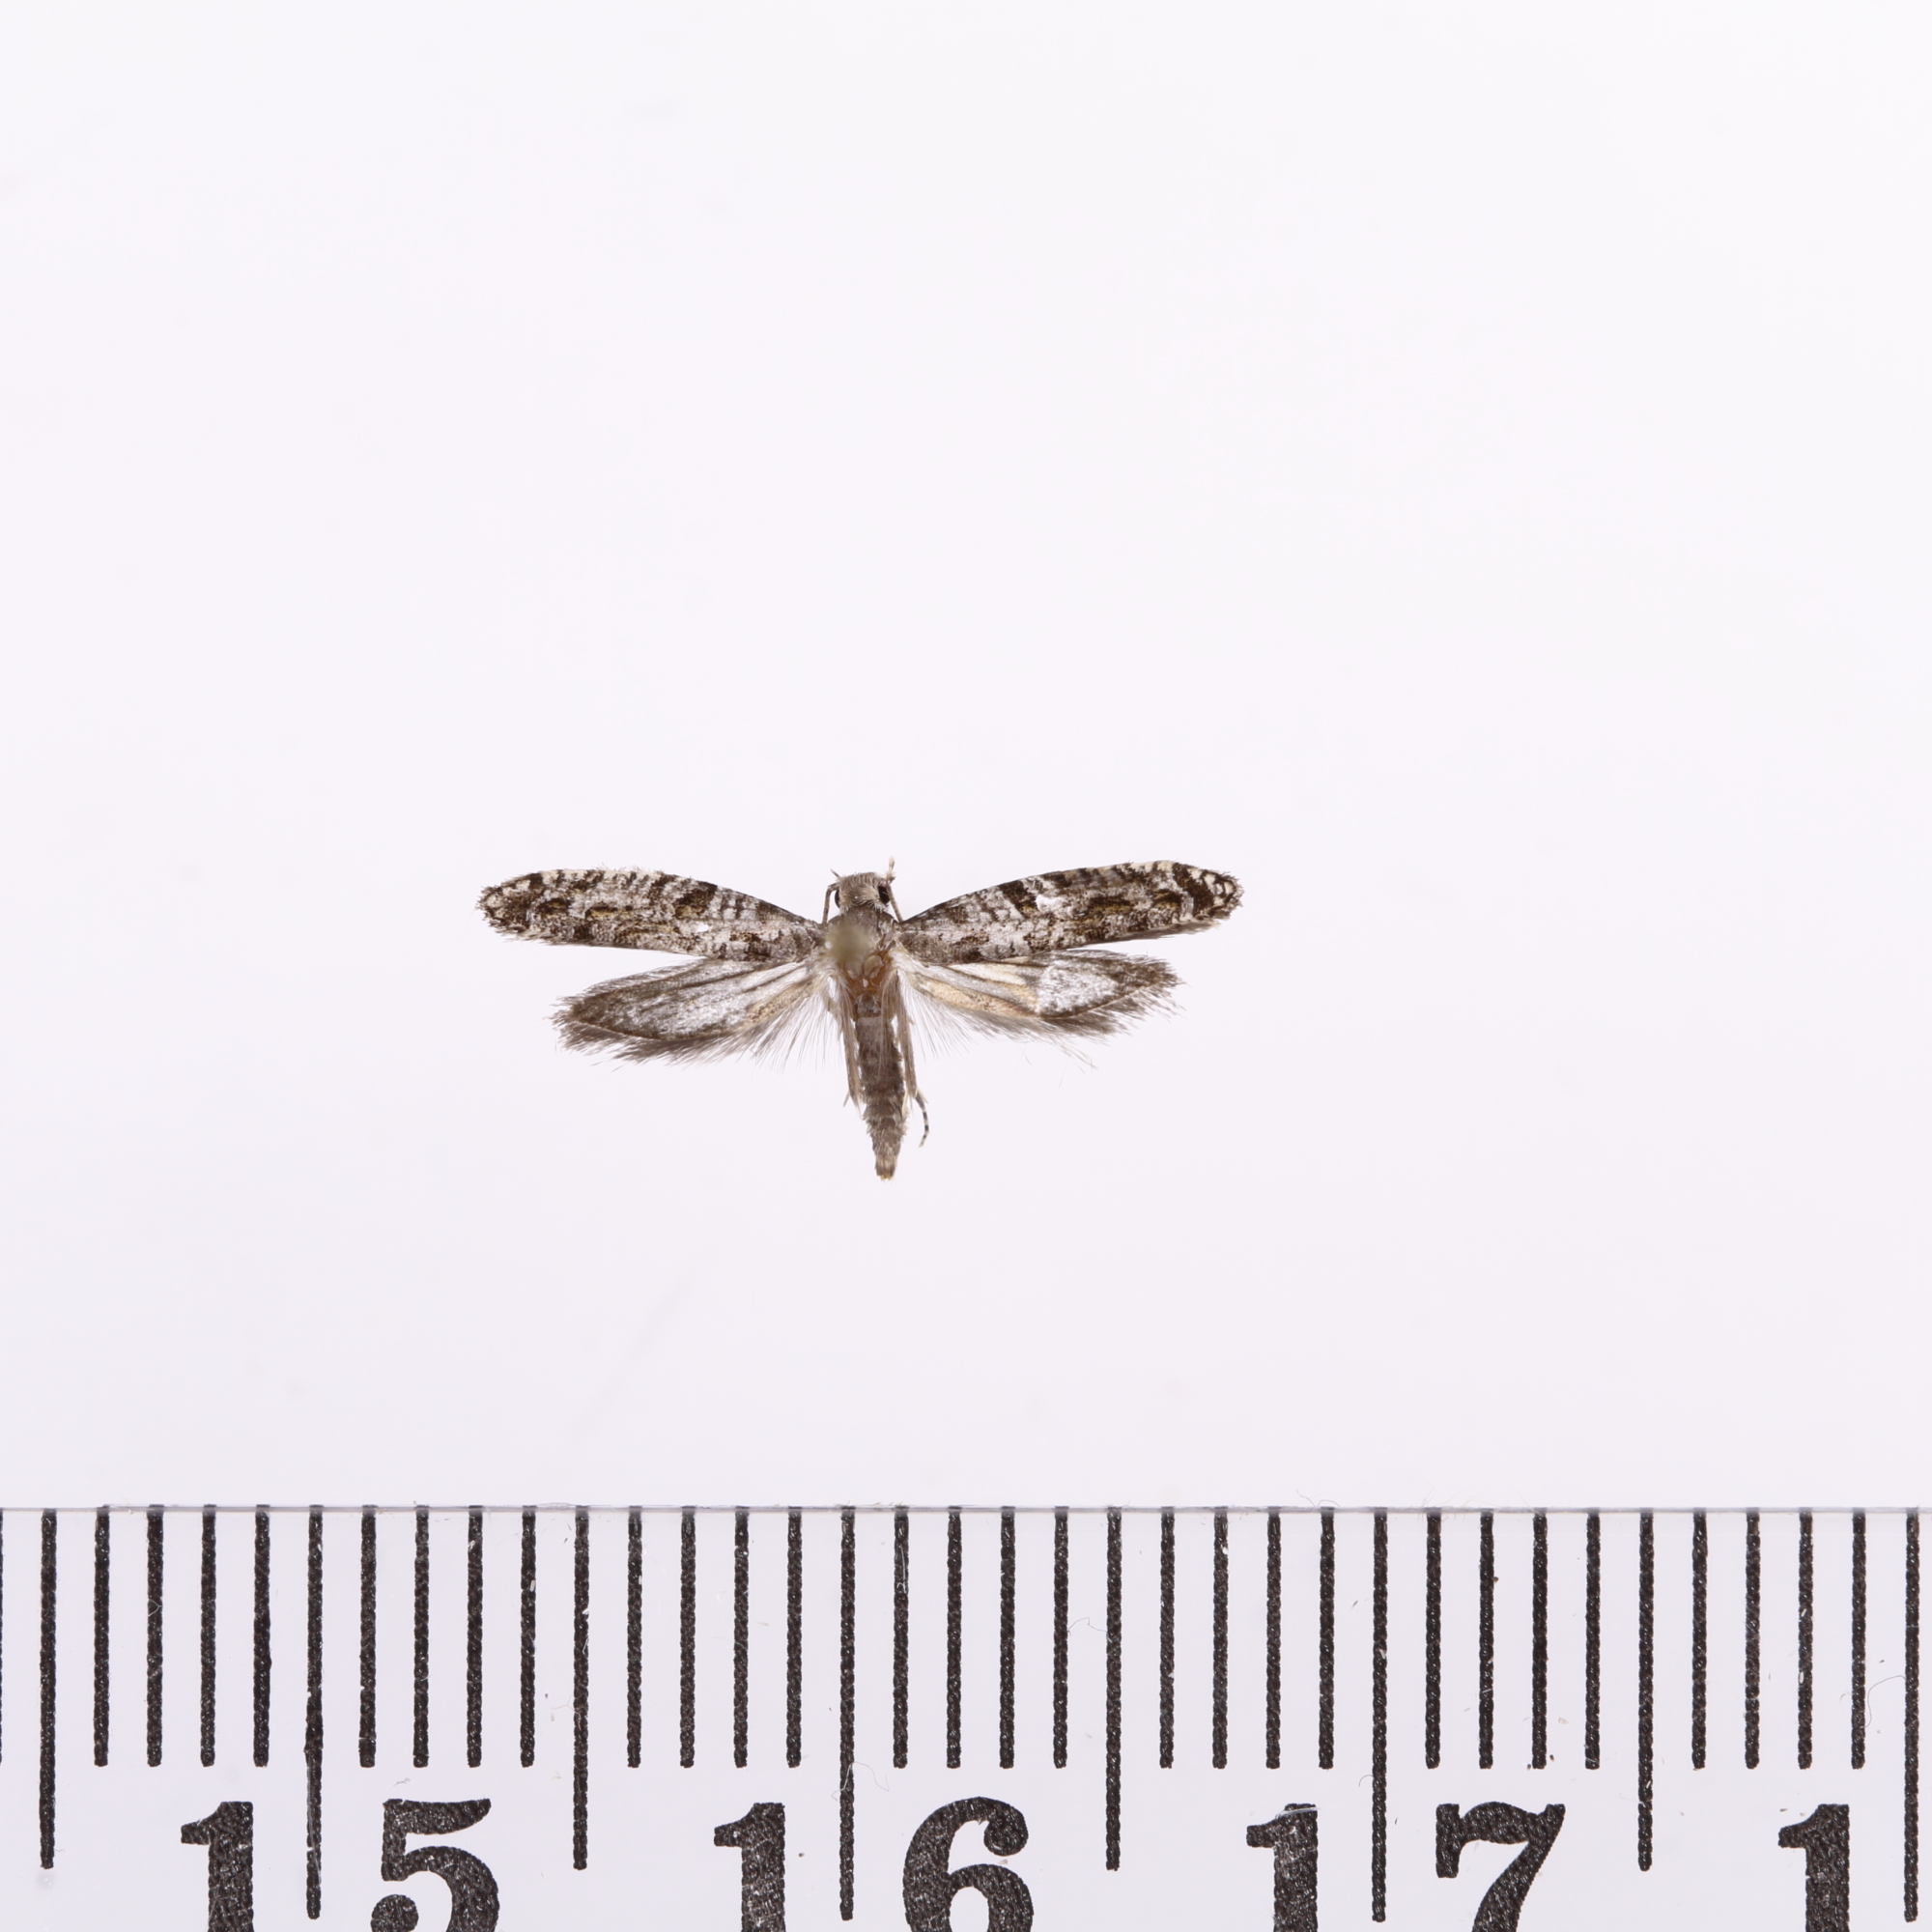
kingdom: Animalia
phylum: Arthropoda
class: Insecta
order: Lepidoptera
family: Tineidae
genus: Archyala
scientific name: Archyala paraglypta
